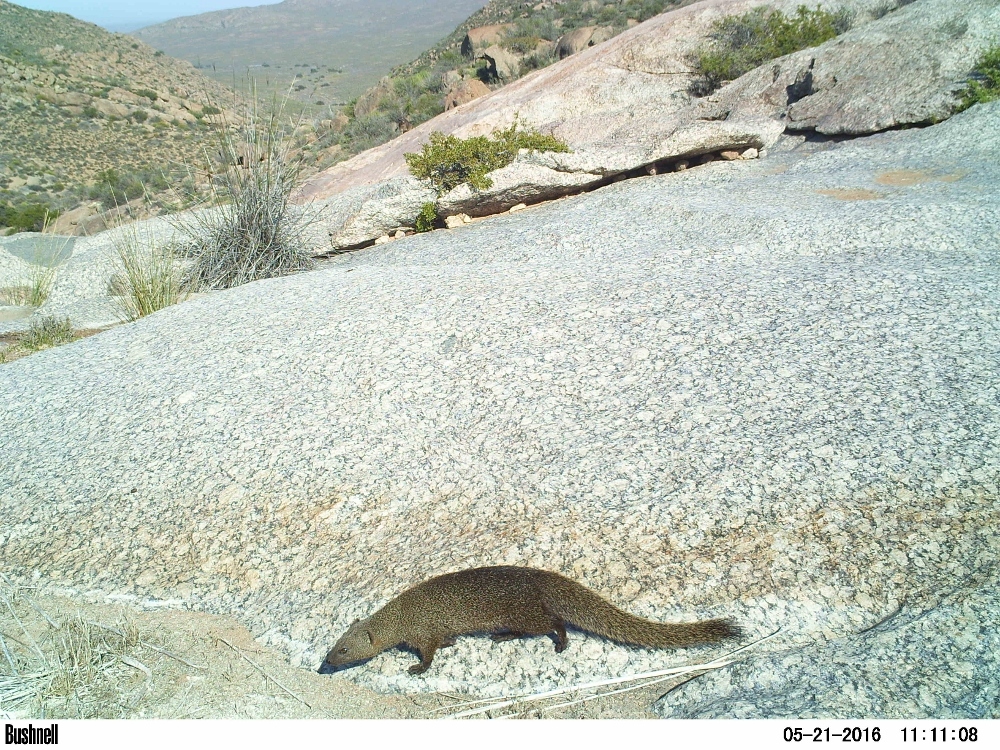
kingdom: Animalia
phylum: Chordata
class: Mammalia
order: Carnivora
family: Herpestidae
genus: Galerella
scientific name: Galerella pulverulenta
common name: Cape gray mongoose
